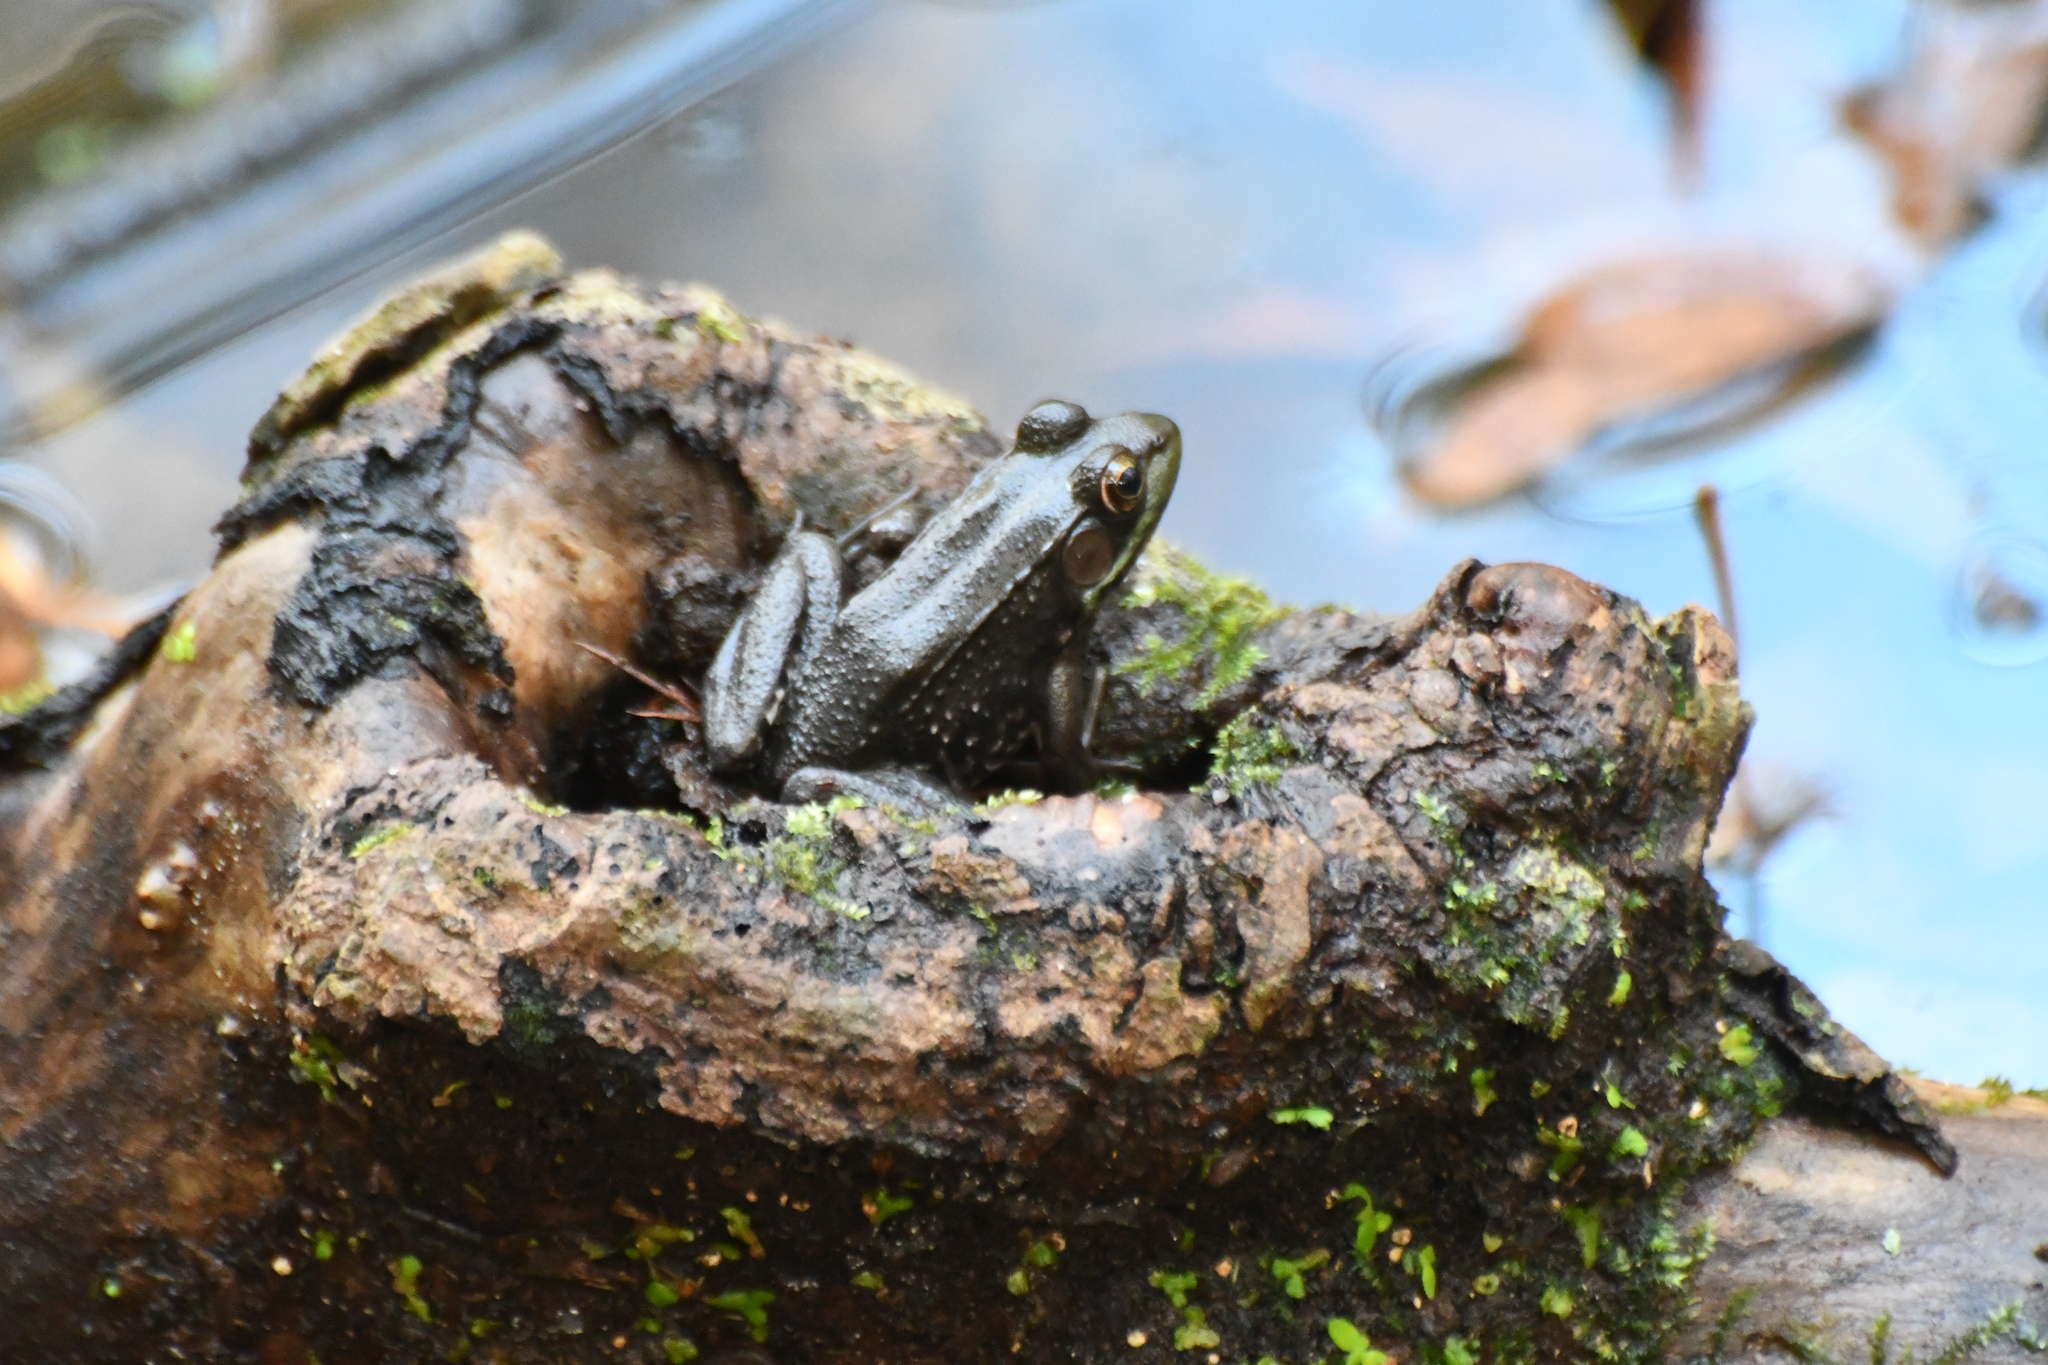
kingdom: Animalia
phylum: Chordata
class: Amphibia
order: Anura
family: Ranidae
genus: Lithobates
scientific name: Lithobates clamitans
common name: Green frog
